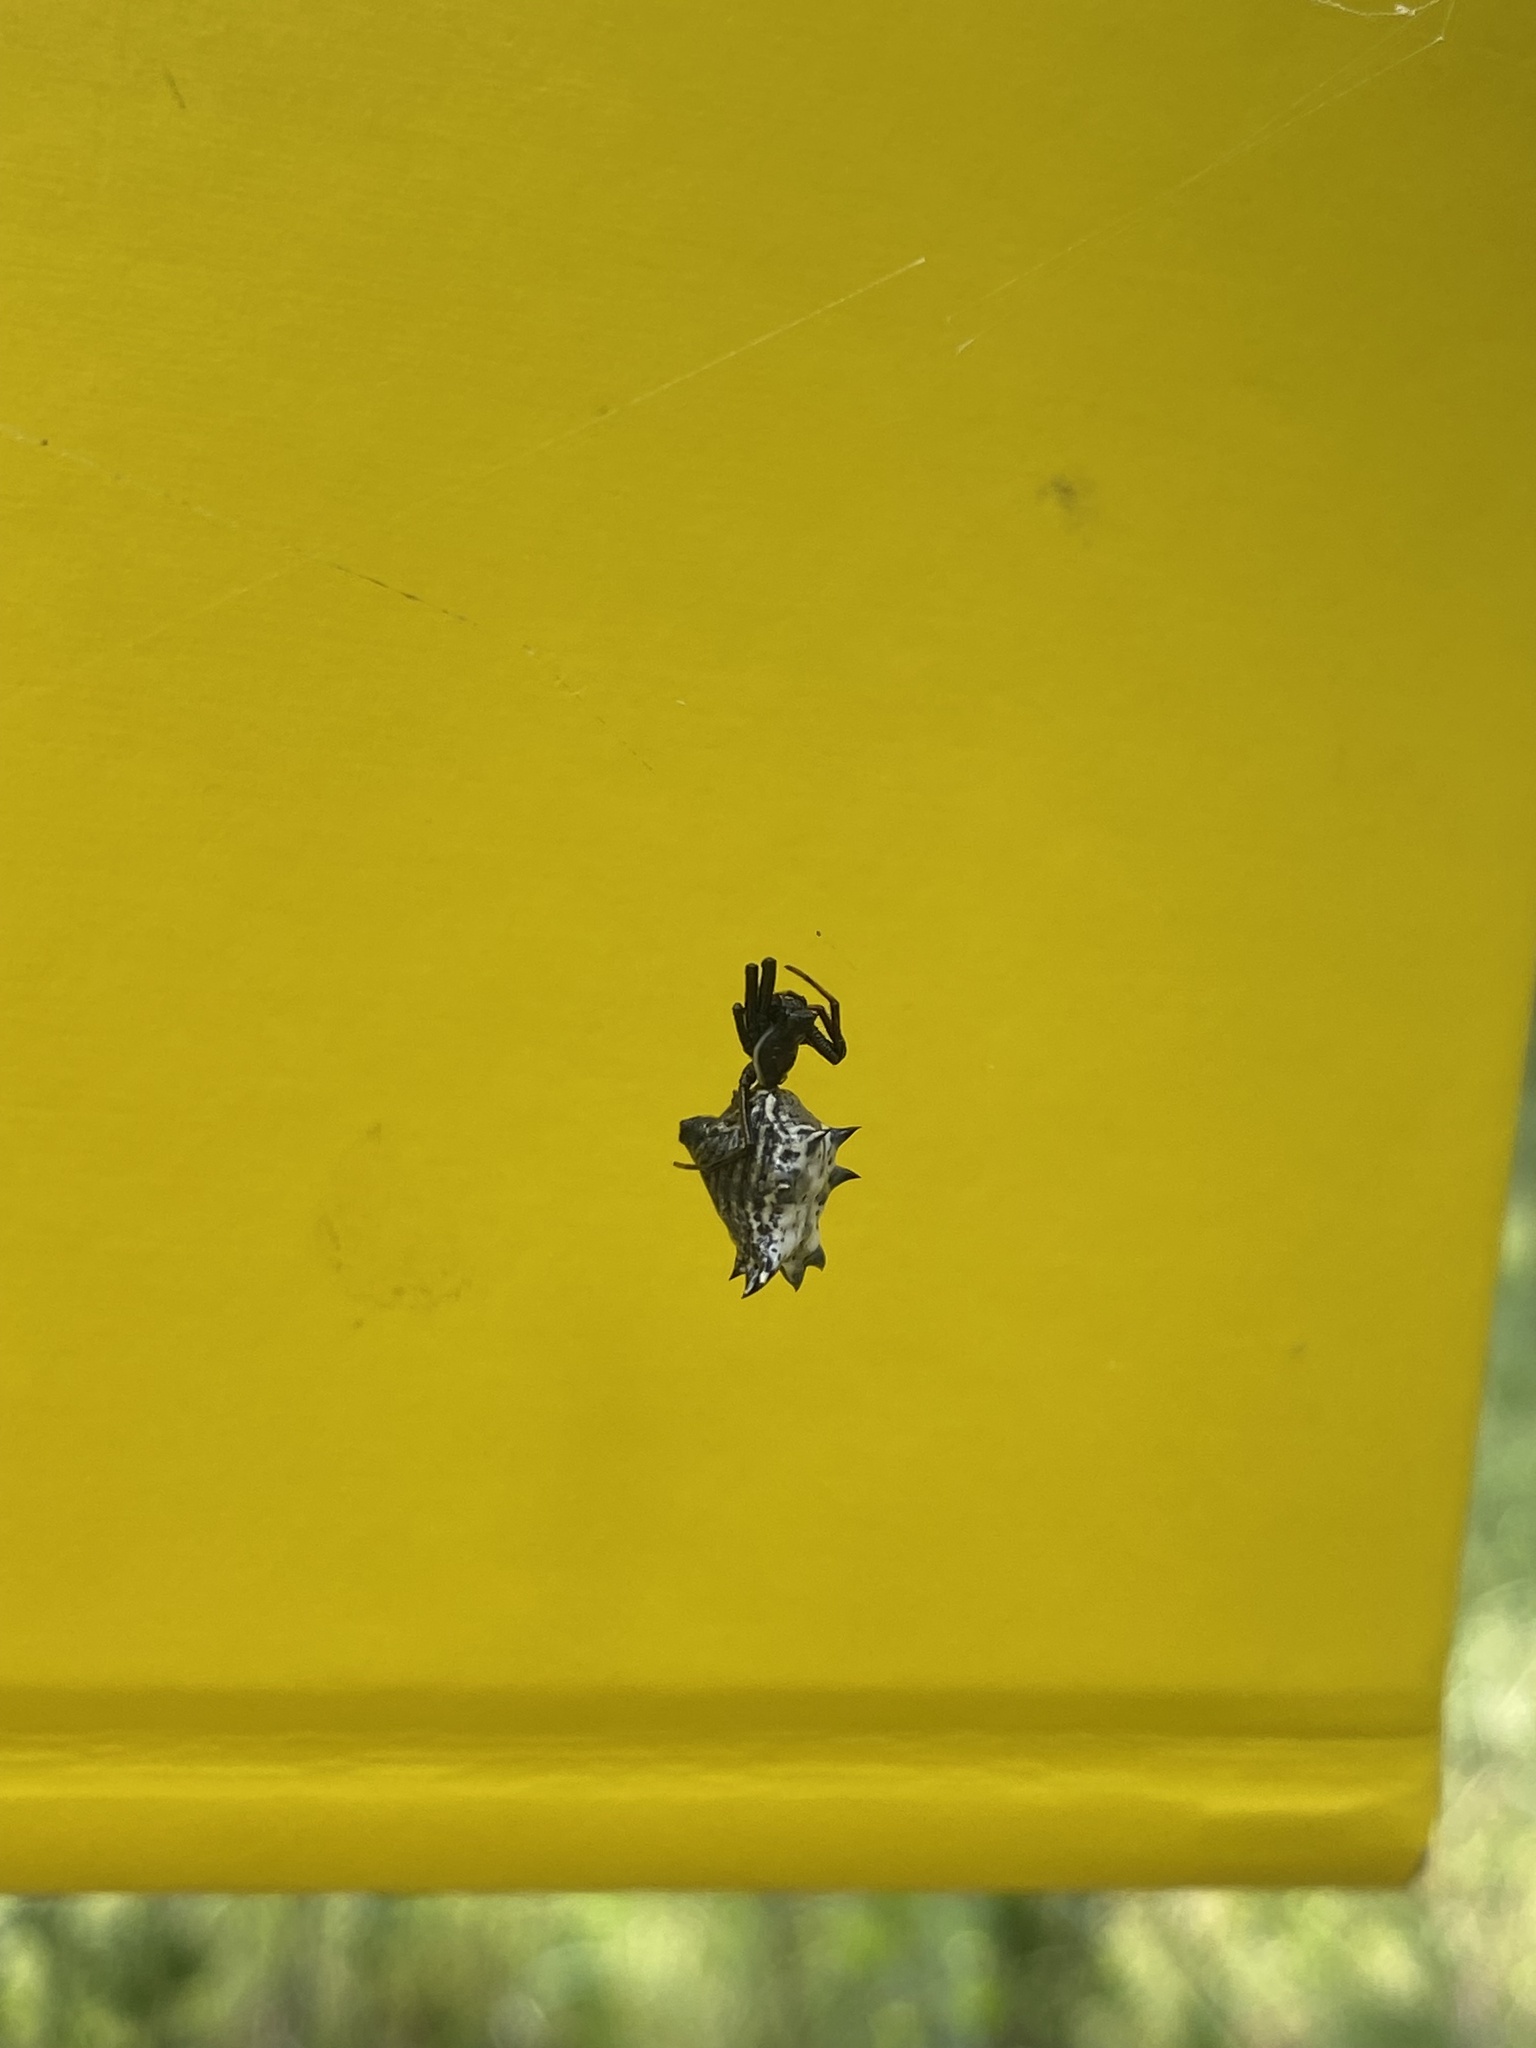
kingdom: Animalia
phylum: Arthropoda
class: Arachnida
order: Araneae
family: Araneidae
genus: Micrathena
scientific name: Micrathena gracilis
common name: Orb weavers
